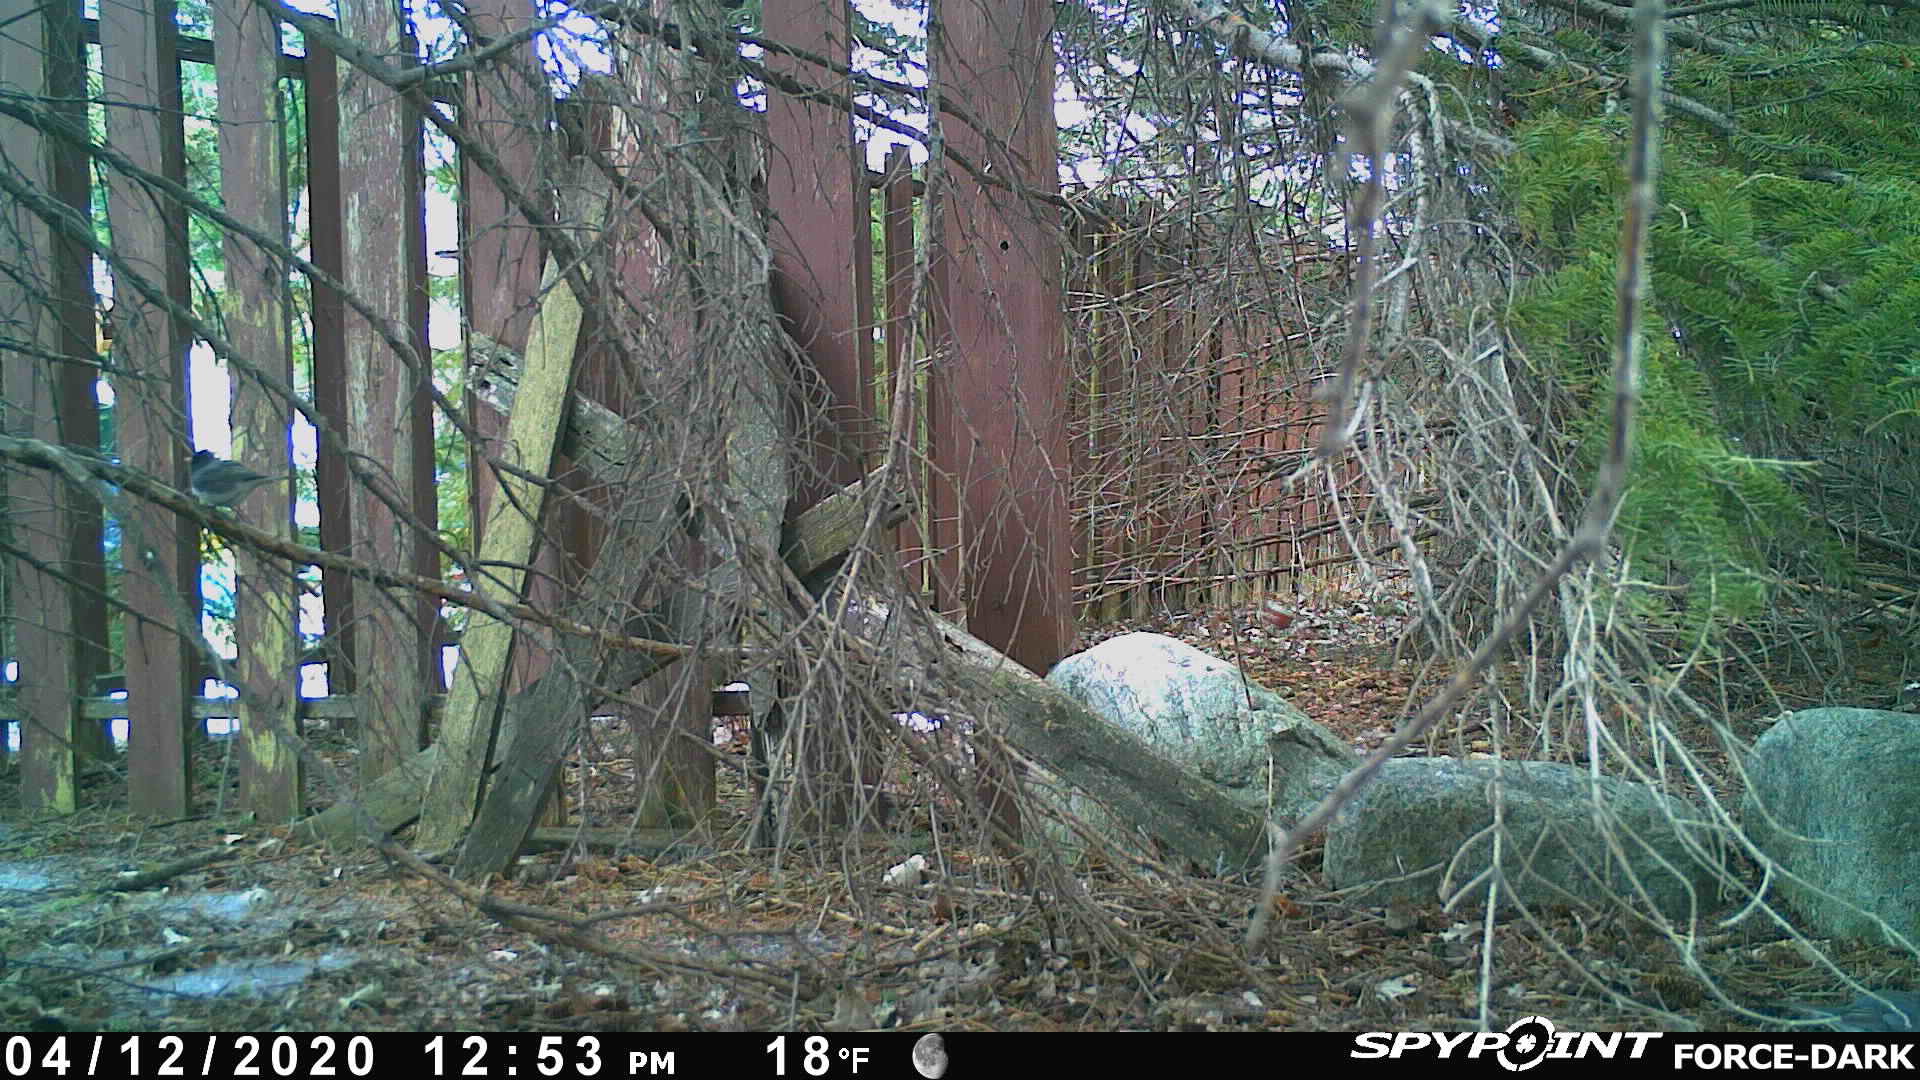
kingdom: Animalia
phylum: Chordata
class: Aves
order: Passeriformes
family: Passerellidae
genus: Junco
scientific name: Junco hyemalis
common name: Dark-eyed junco
